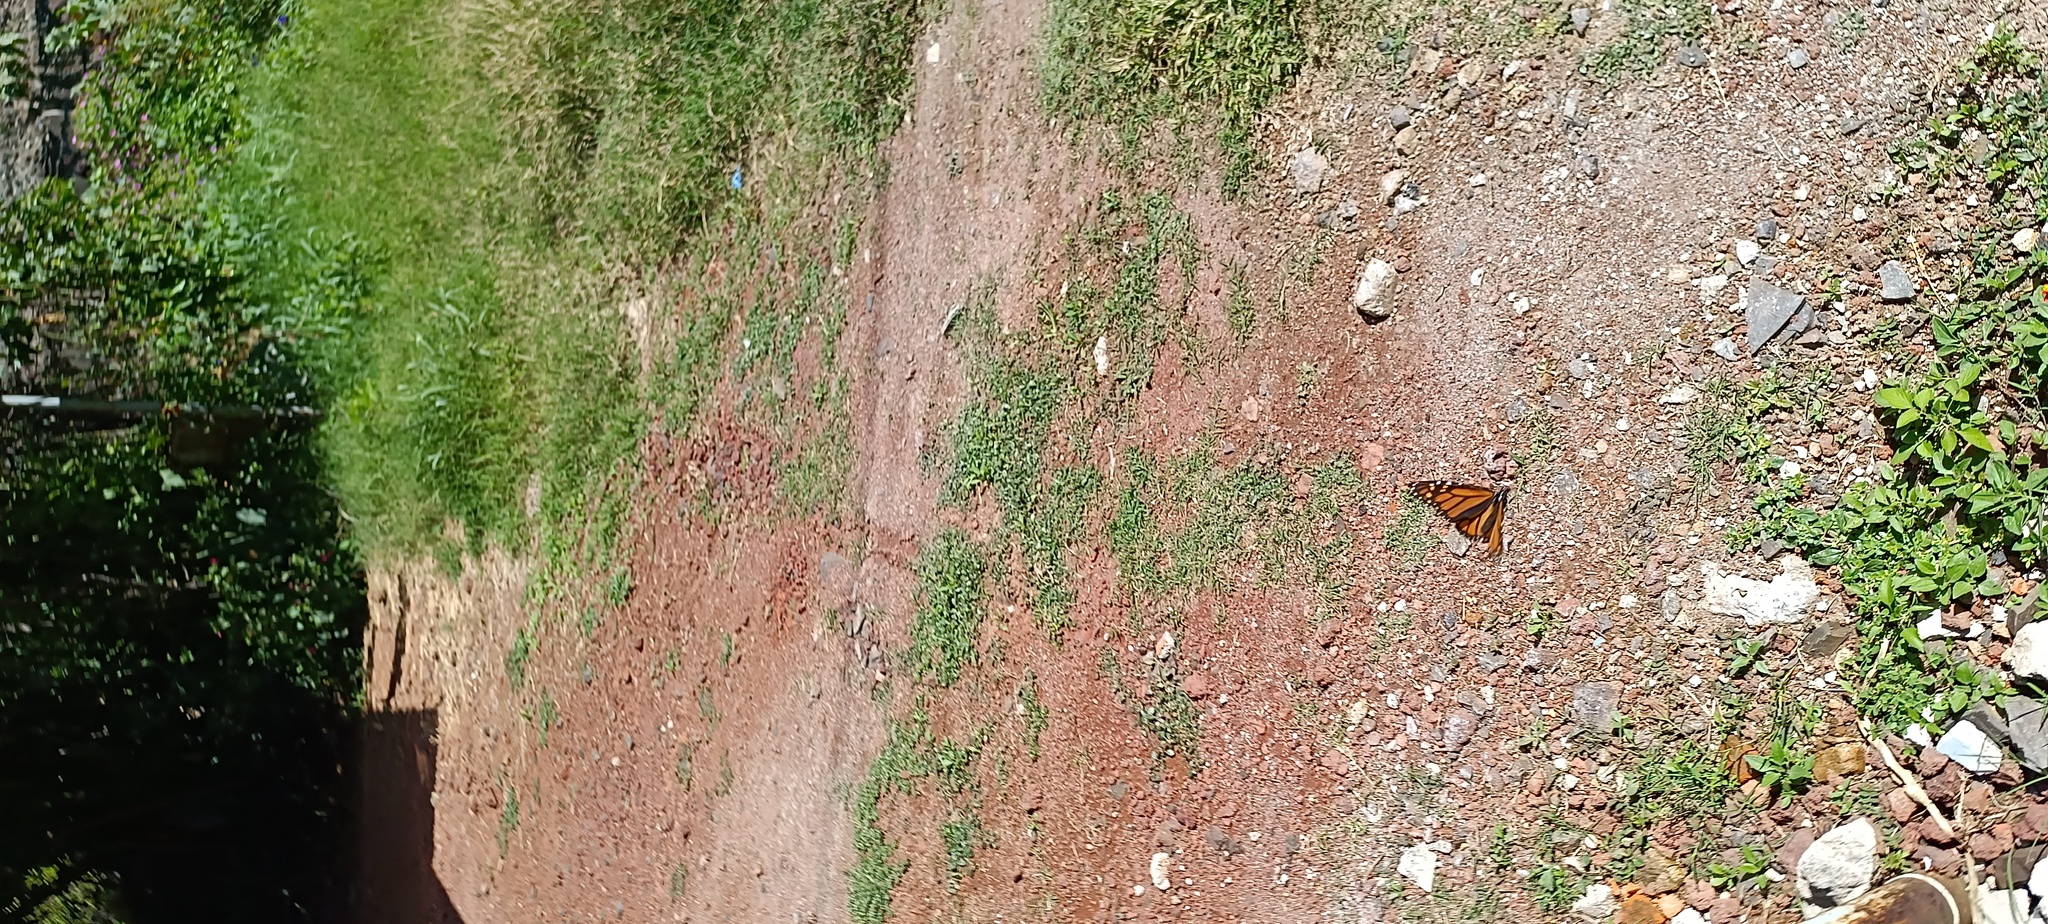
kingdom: Animalia
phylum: Arthropoda
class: Insecta
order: Lepidoptera
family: Nymphalidae
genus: Danaus
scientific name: Danaus plexippus
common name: Monarch
